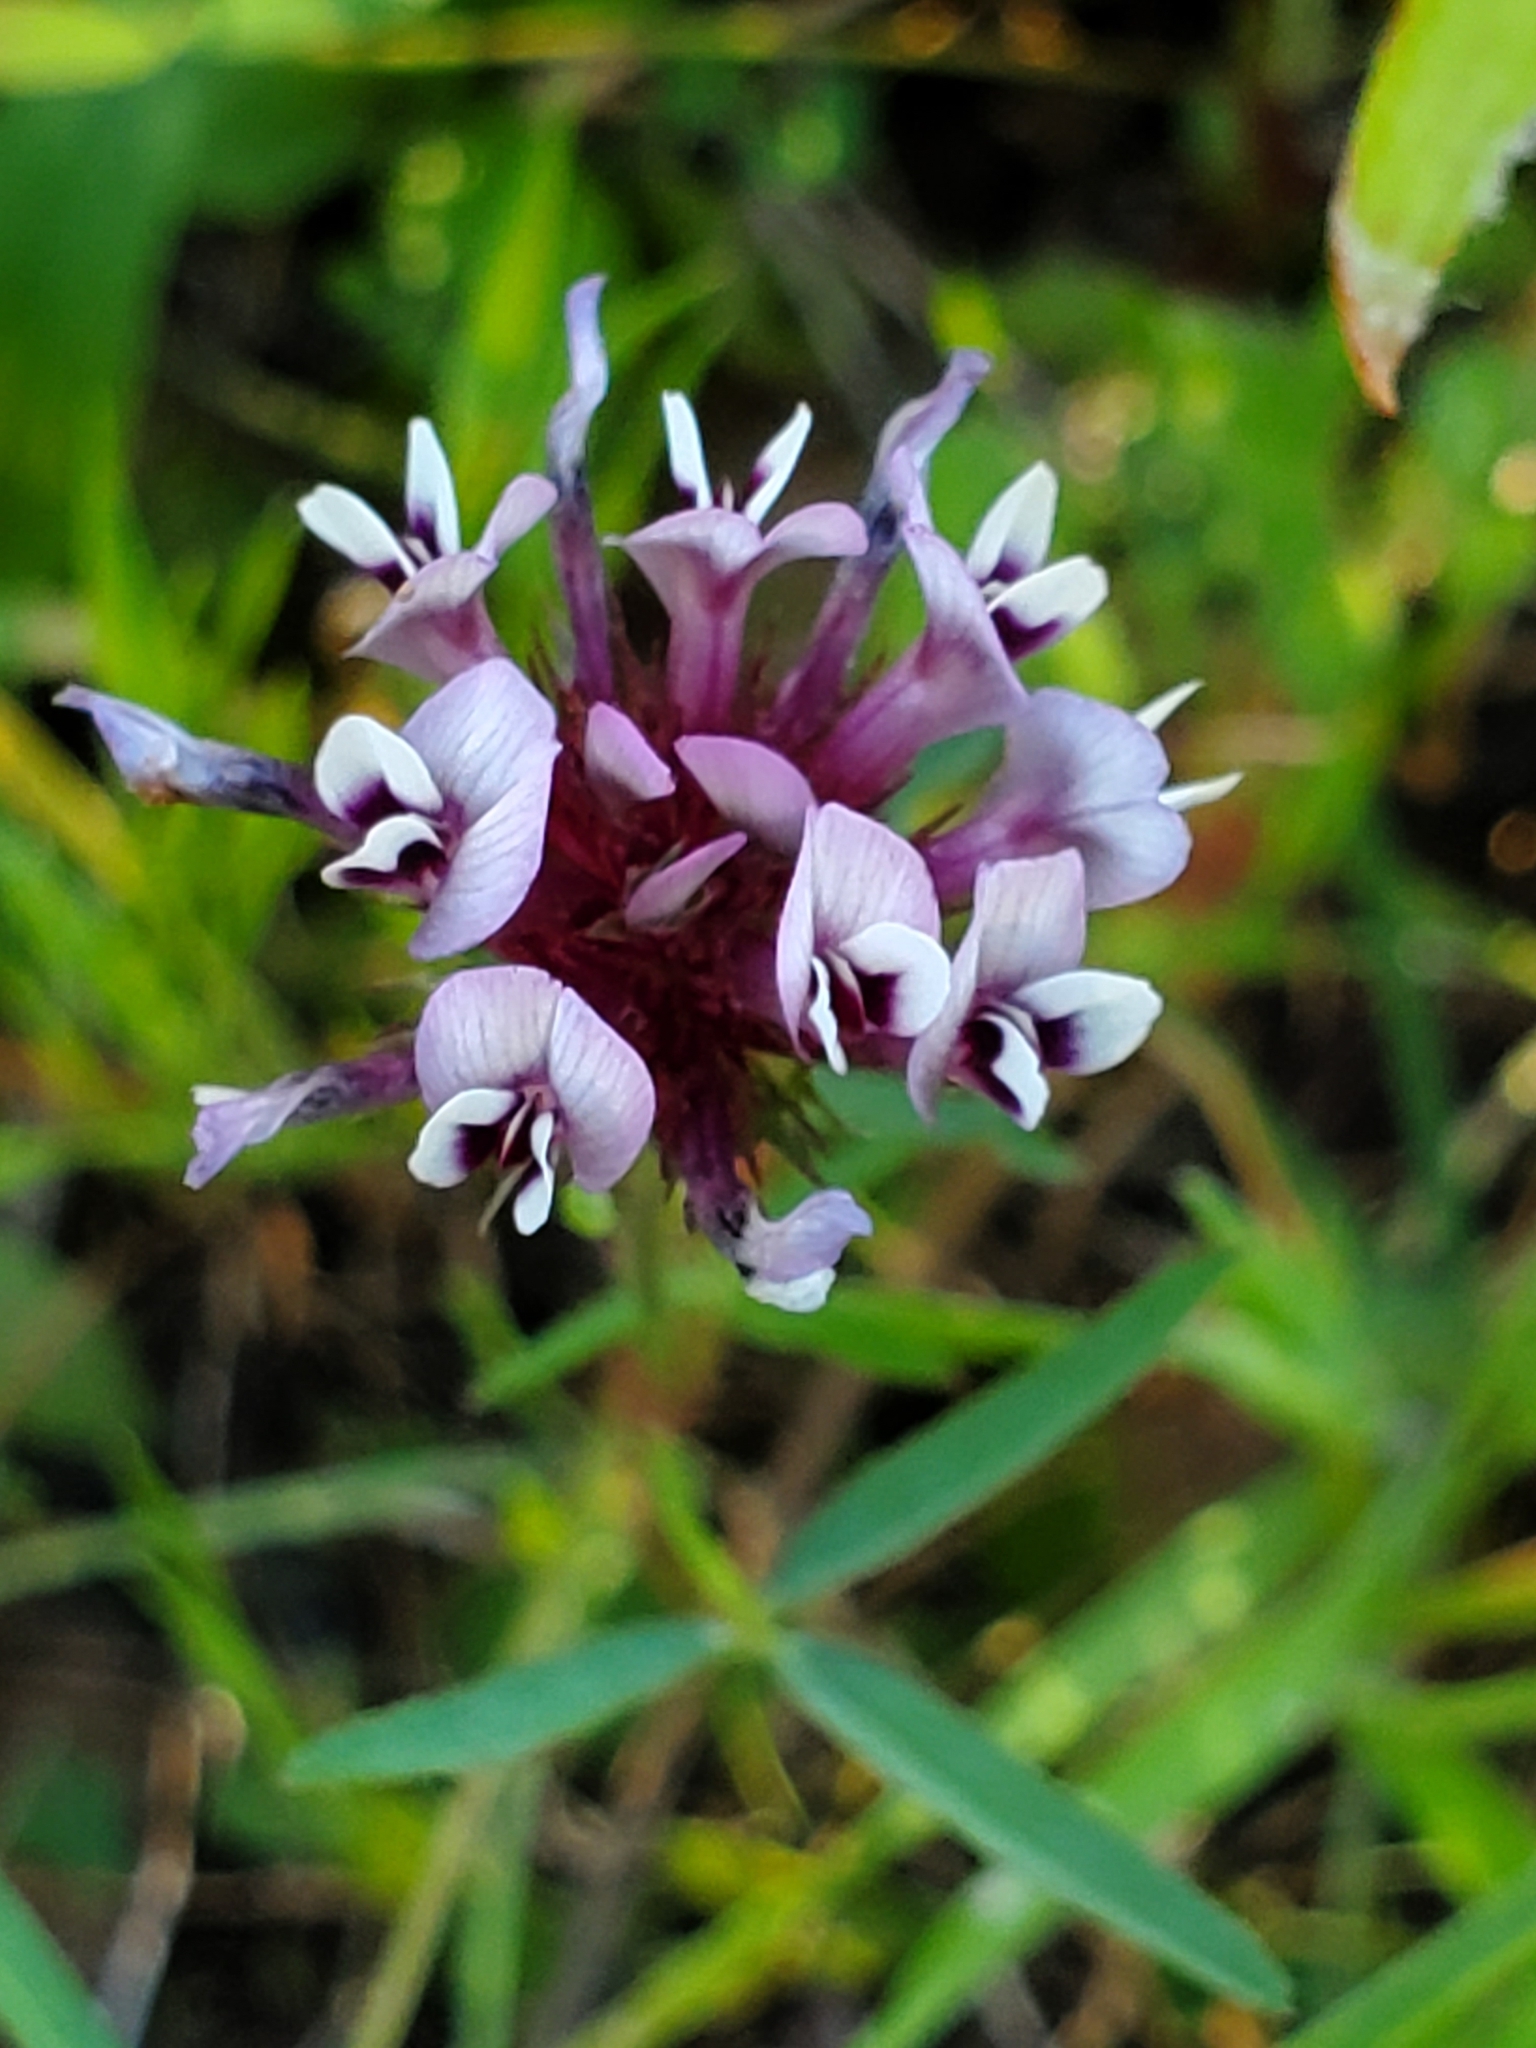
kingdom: Plantae
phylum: Tracheophyta
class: Magnoliopsida
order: Fabales
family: Fabaceae
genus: Trifolium
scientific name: Trifolium willdenovii
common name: Tomcat clover
